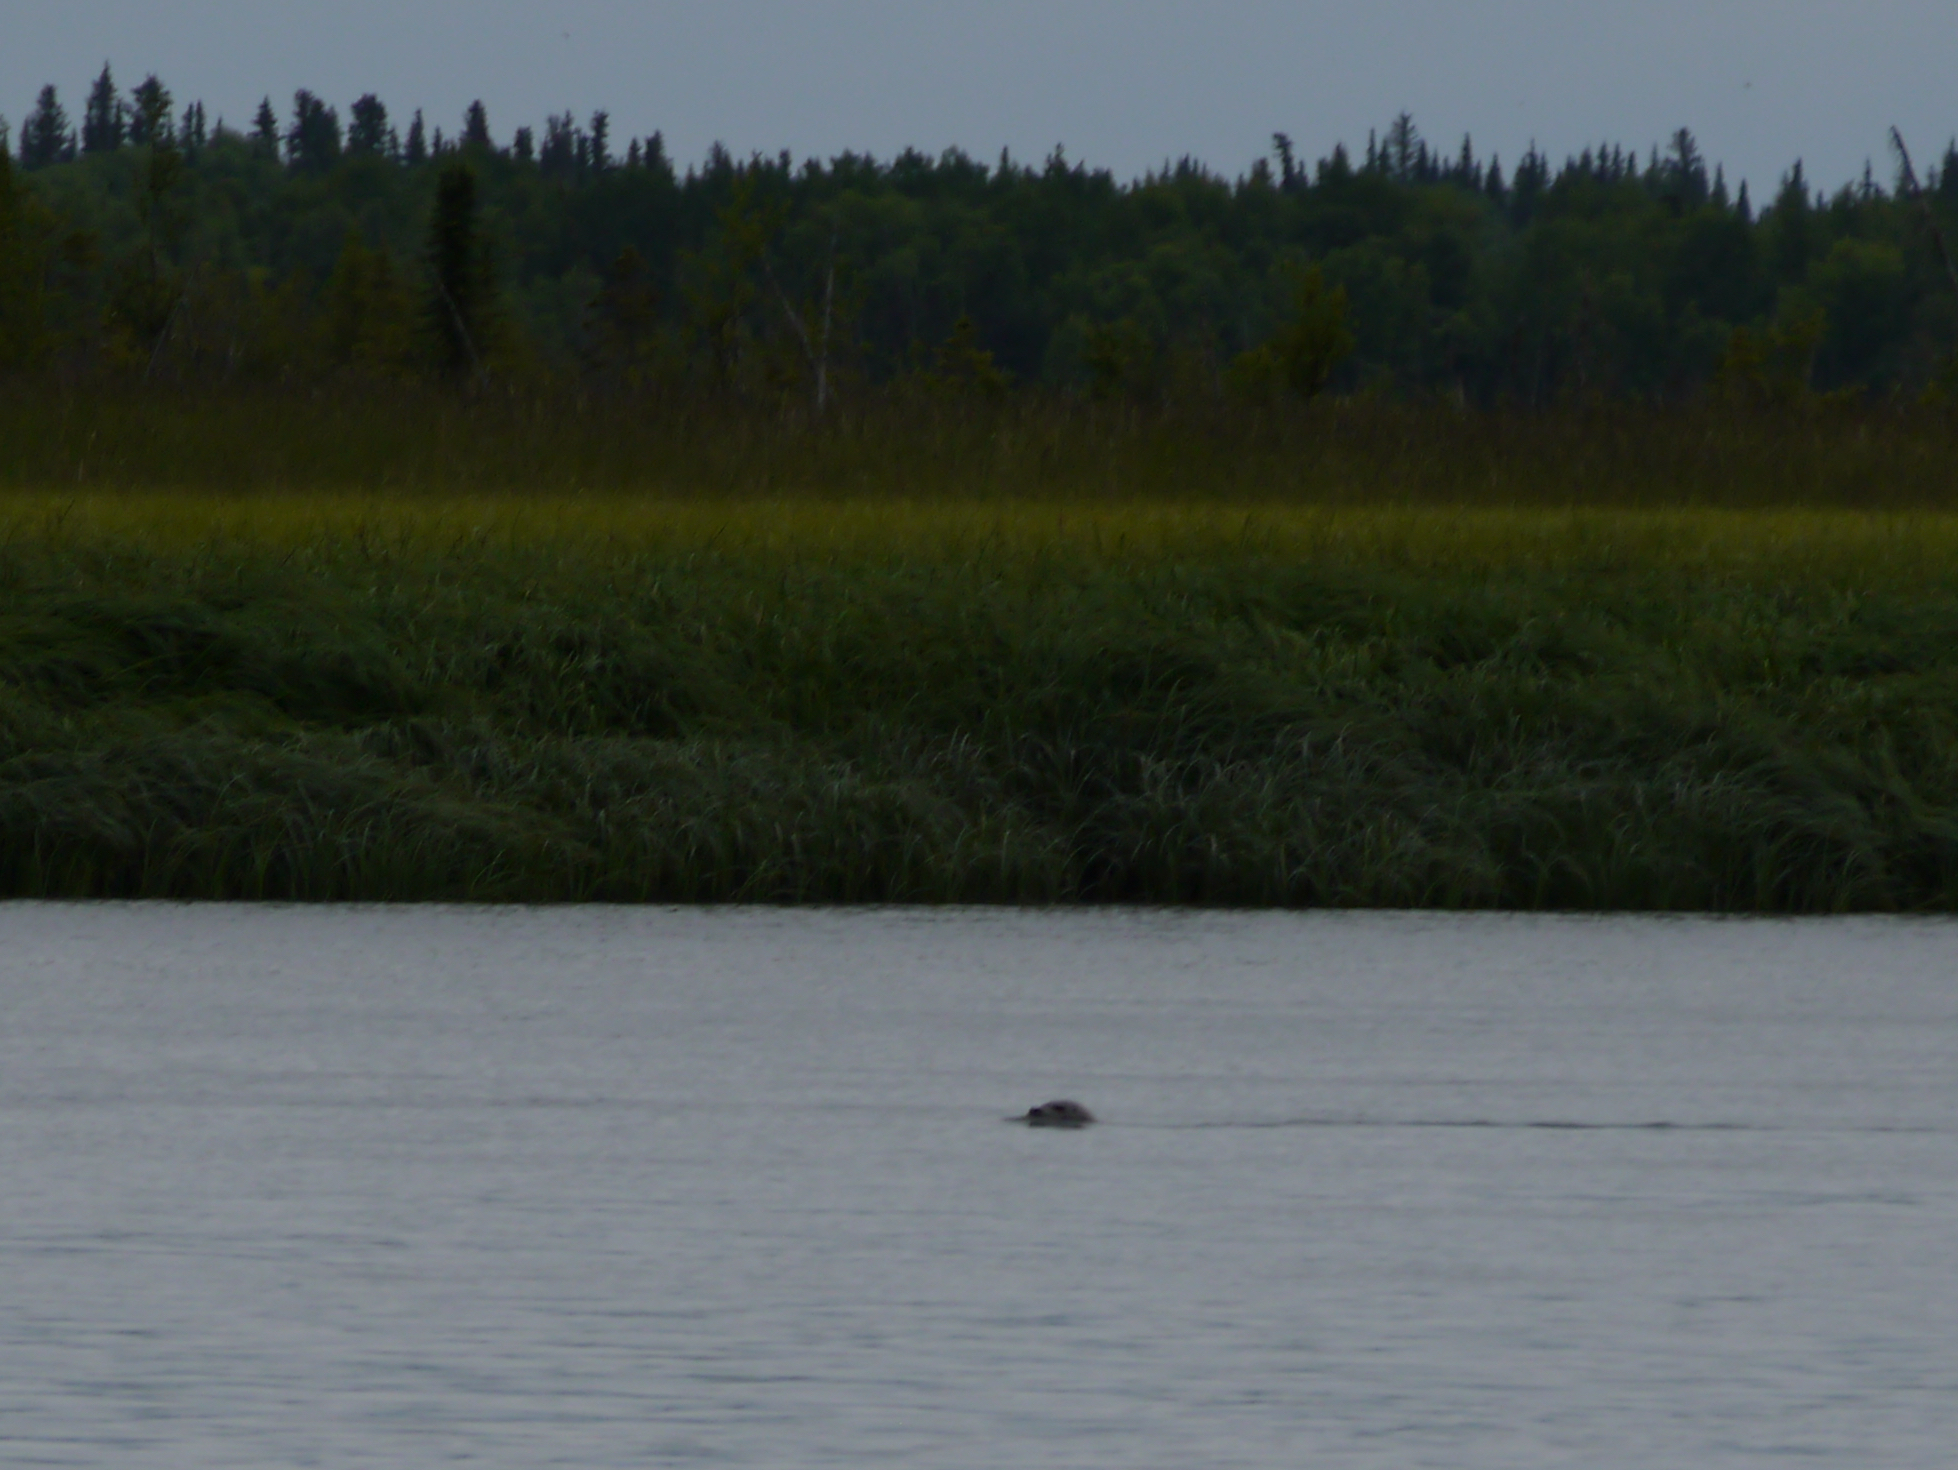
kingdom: Animalia
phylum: Chordata
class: Mammalia
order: Carnivora
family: Phocidae
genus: Phoca
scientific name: Phoca vitulina
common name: Harbor seal
